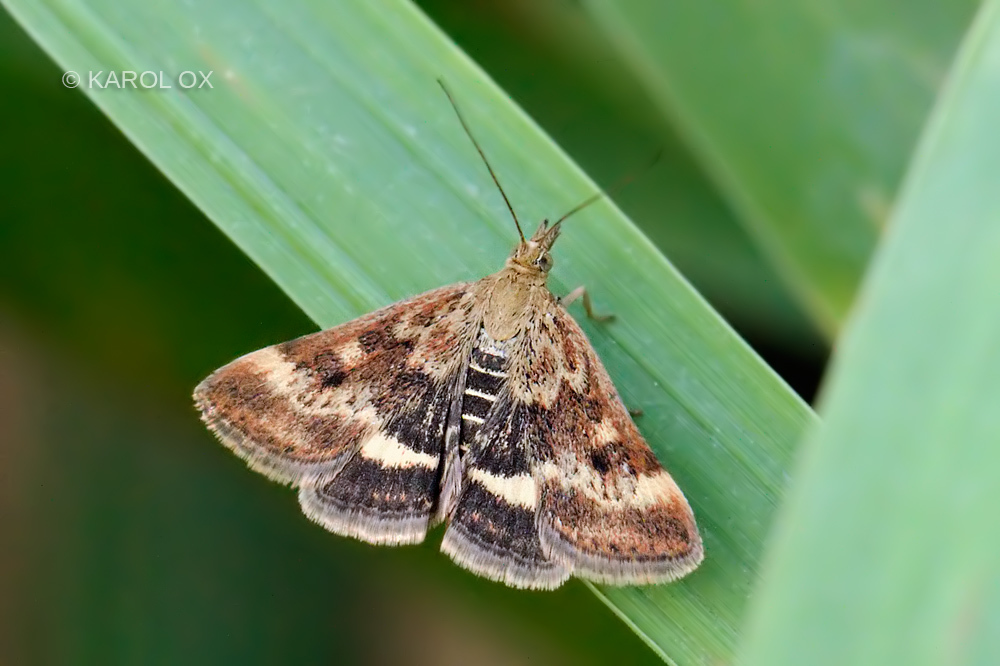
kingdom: Animalia
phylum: Arthropoda
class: Insecta
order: Lepidoptera
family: Crambidae
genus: Pyrausta
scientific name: Pyrausta despicata
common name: Straw-barred pearl
